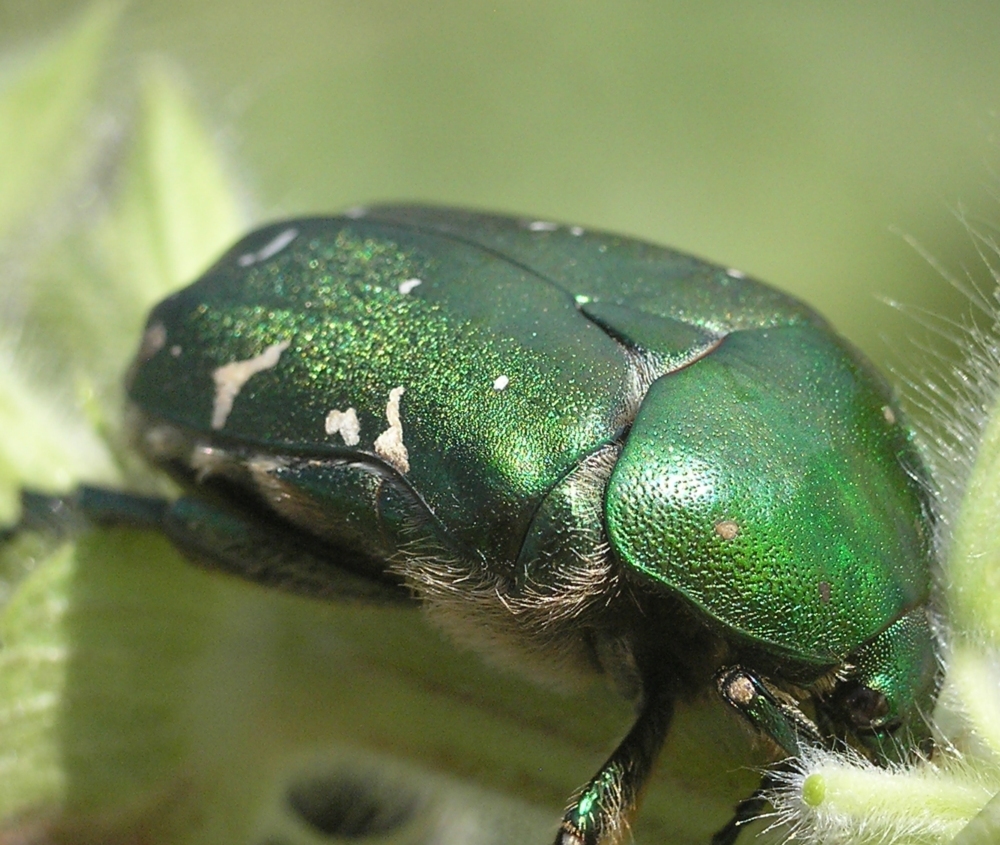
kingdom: Animalia
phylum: Arthropoda
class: Insecta
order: Coleoptera
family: Scarabaeidae
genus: Protaetia
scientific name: Protaetia ungarica
